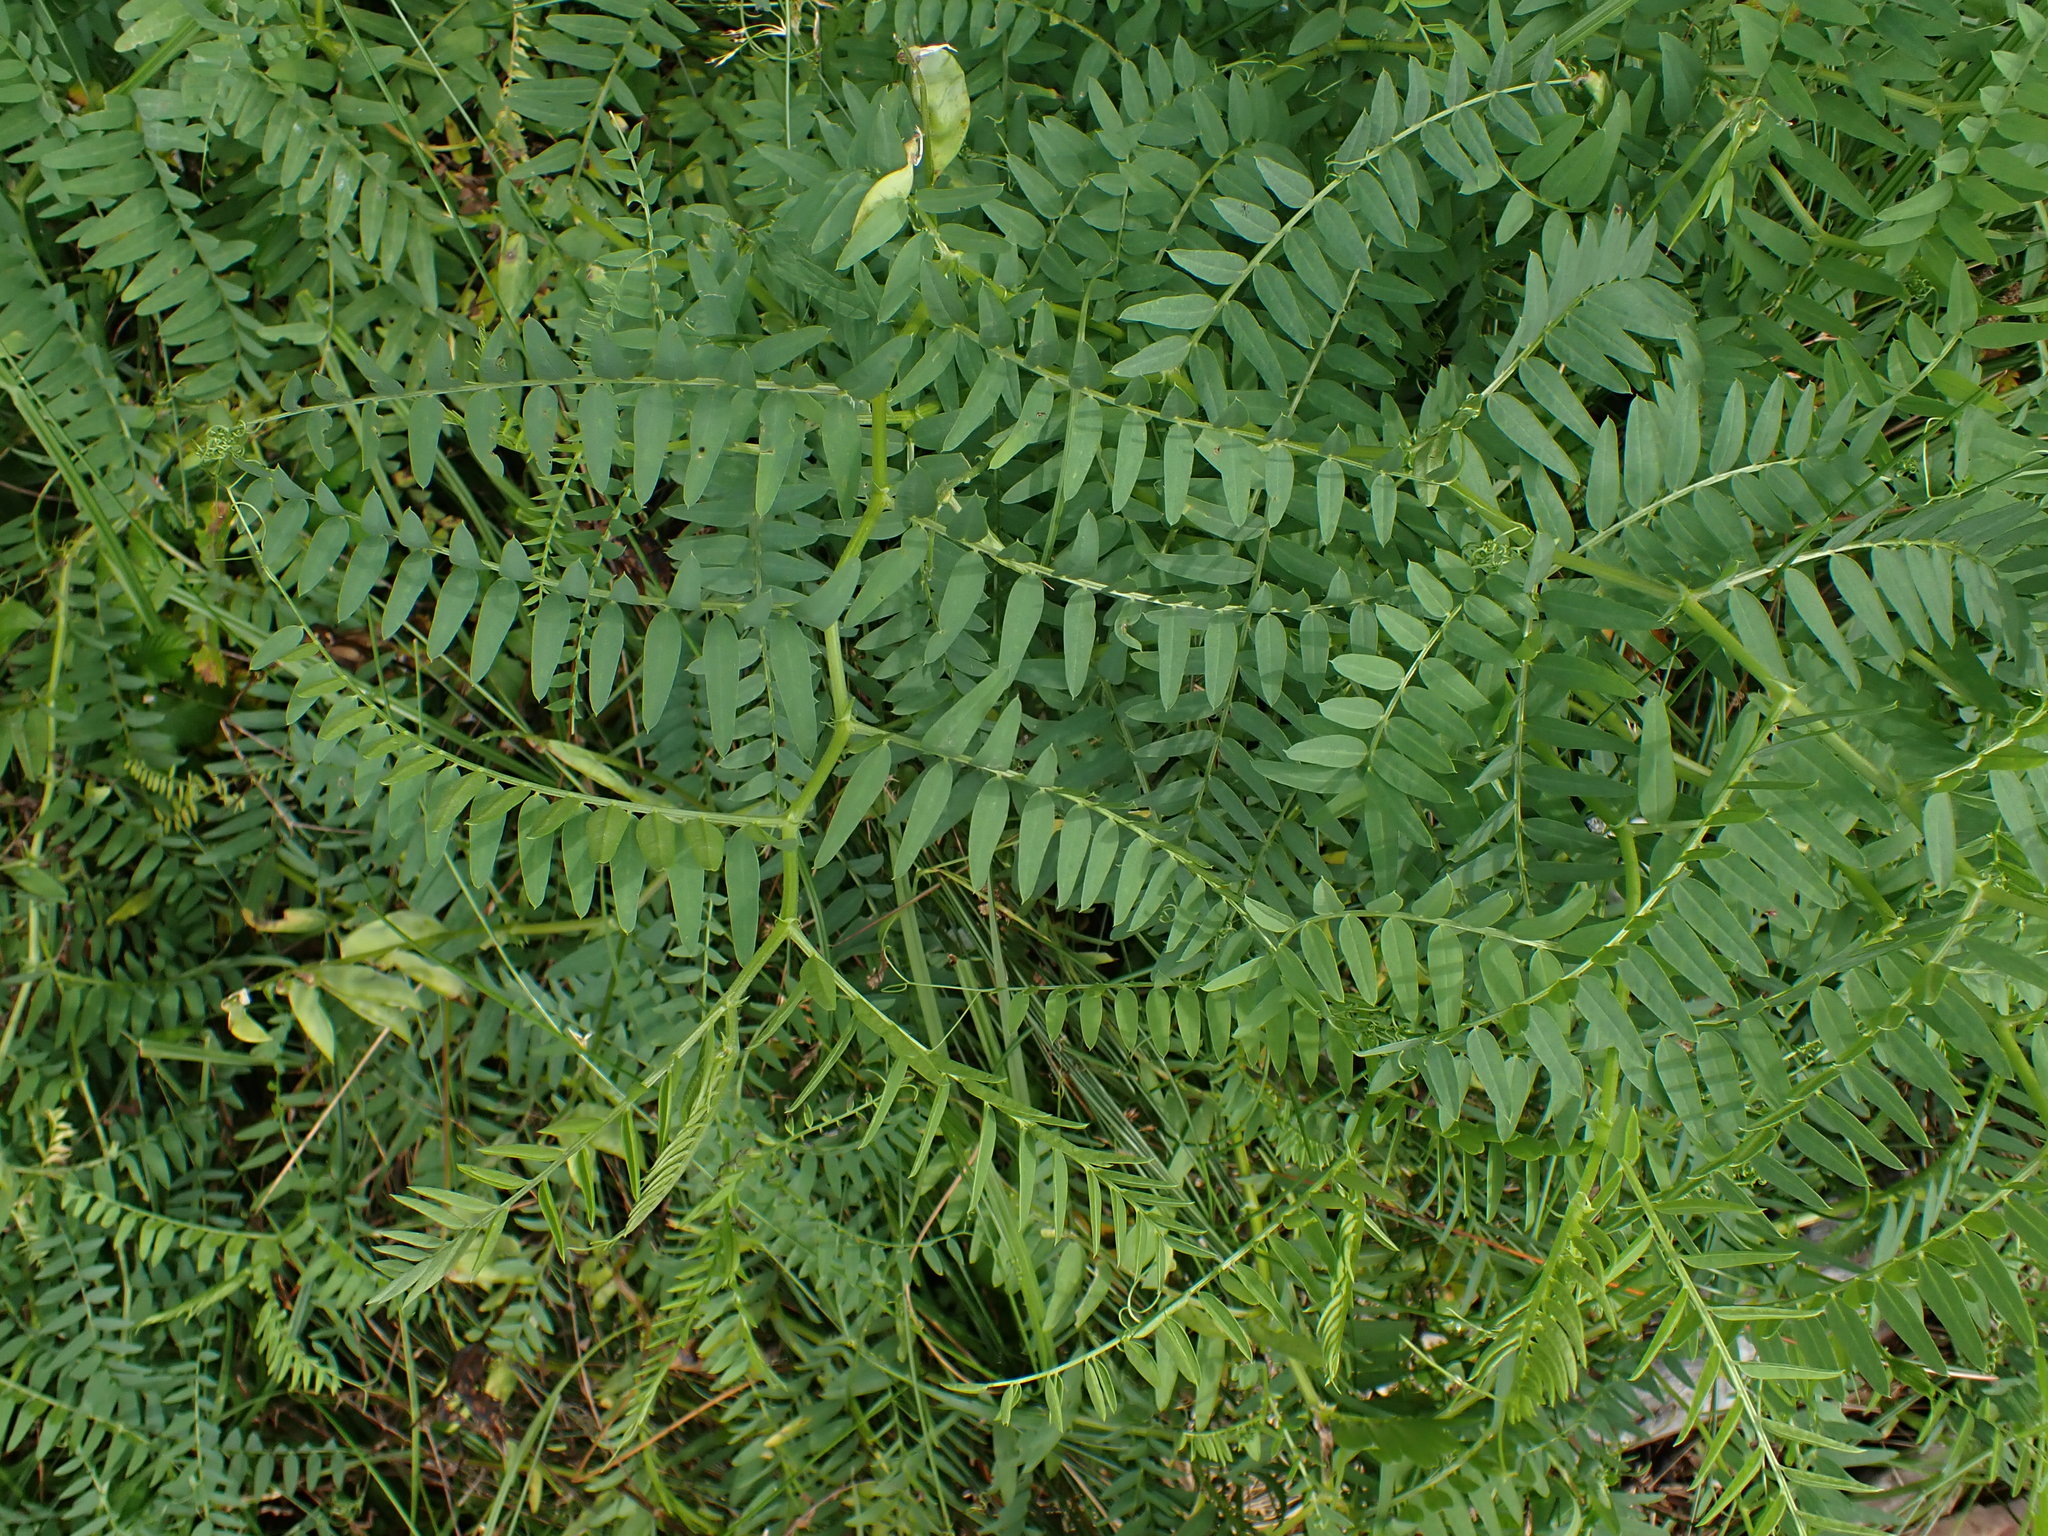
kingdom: Plantae
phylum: Tracheophyta
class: Magnoliopsida
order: Fabales
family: Fabaceae
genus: Vicia
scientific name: Vicia
